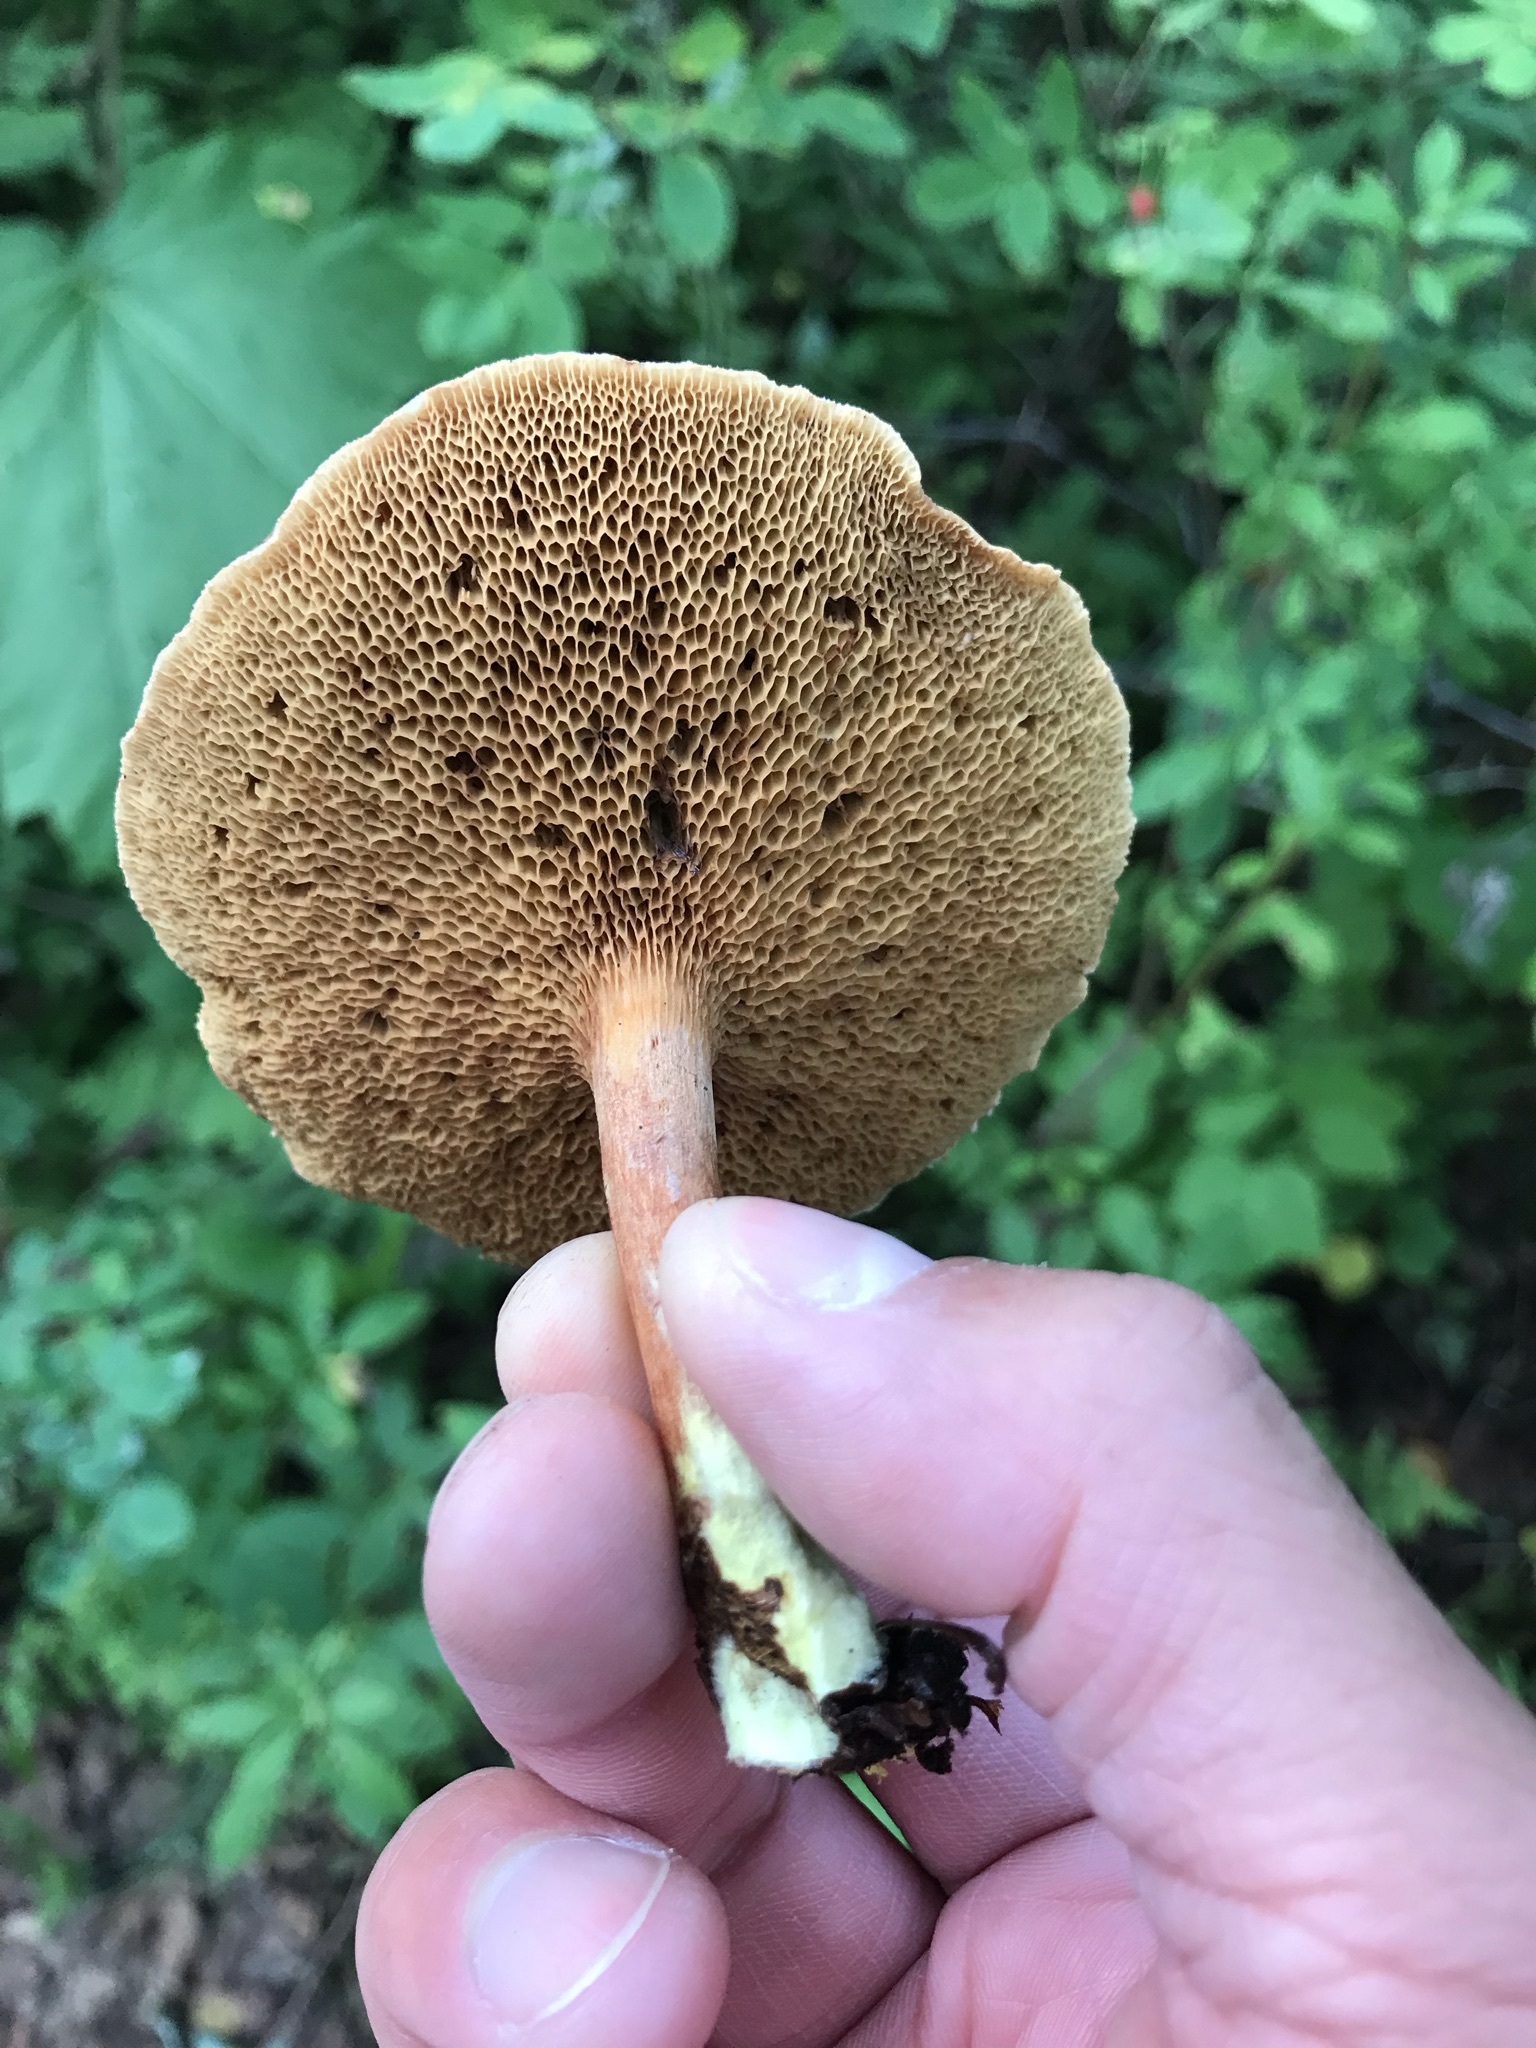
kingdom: Fungi
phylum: Basidiomycota
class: Agaricomycetes
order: Boletales
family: Boletaceae
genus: Chalciporus
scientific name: Chalciporus piperatus
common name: Peppery bolete
